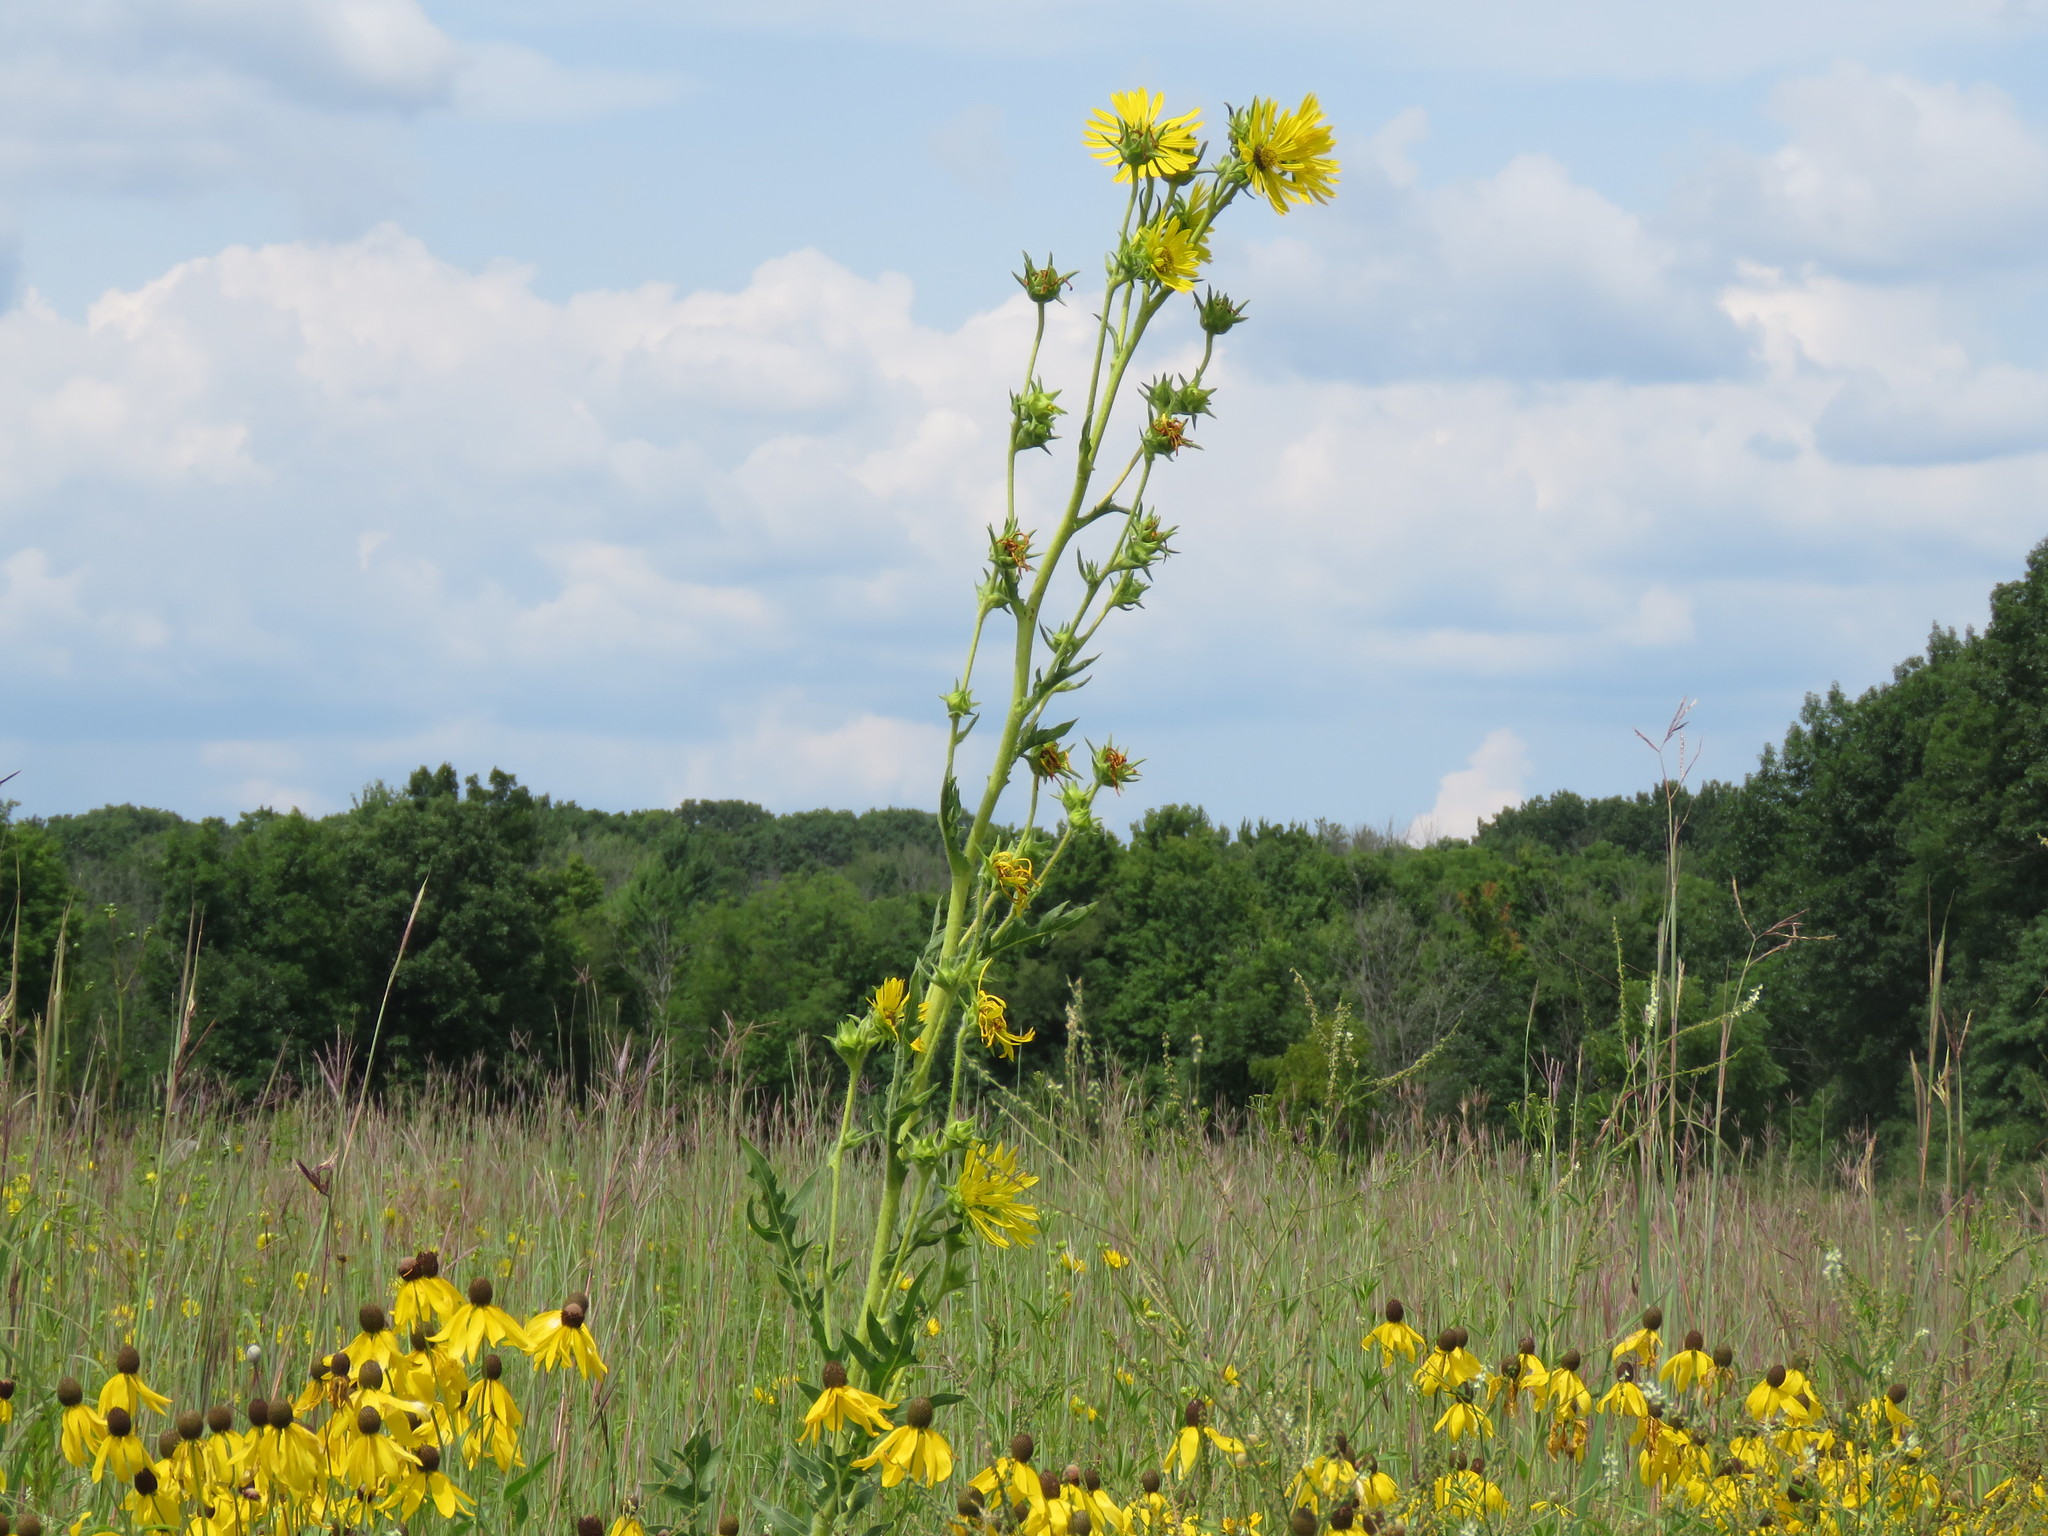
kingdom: Plantae
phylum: Tracheophyta
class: Magnoliopsida
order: Asterales
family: Asteraceae
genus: Silphium
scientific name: Silphium laciniatum
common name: Polarplant
